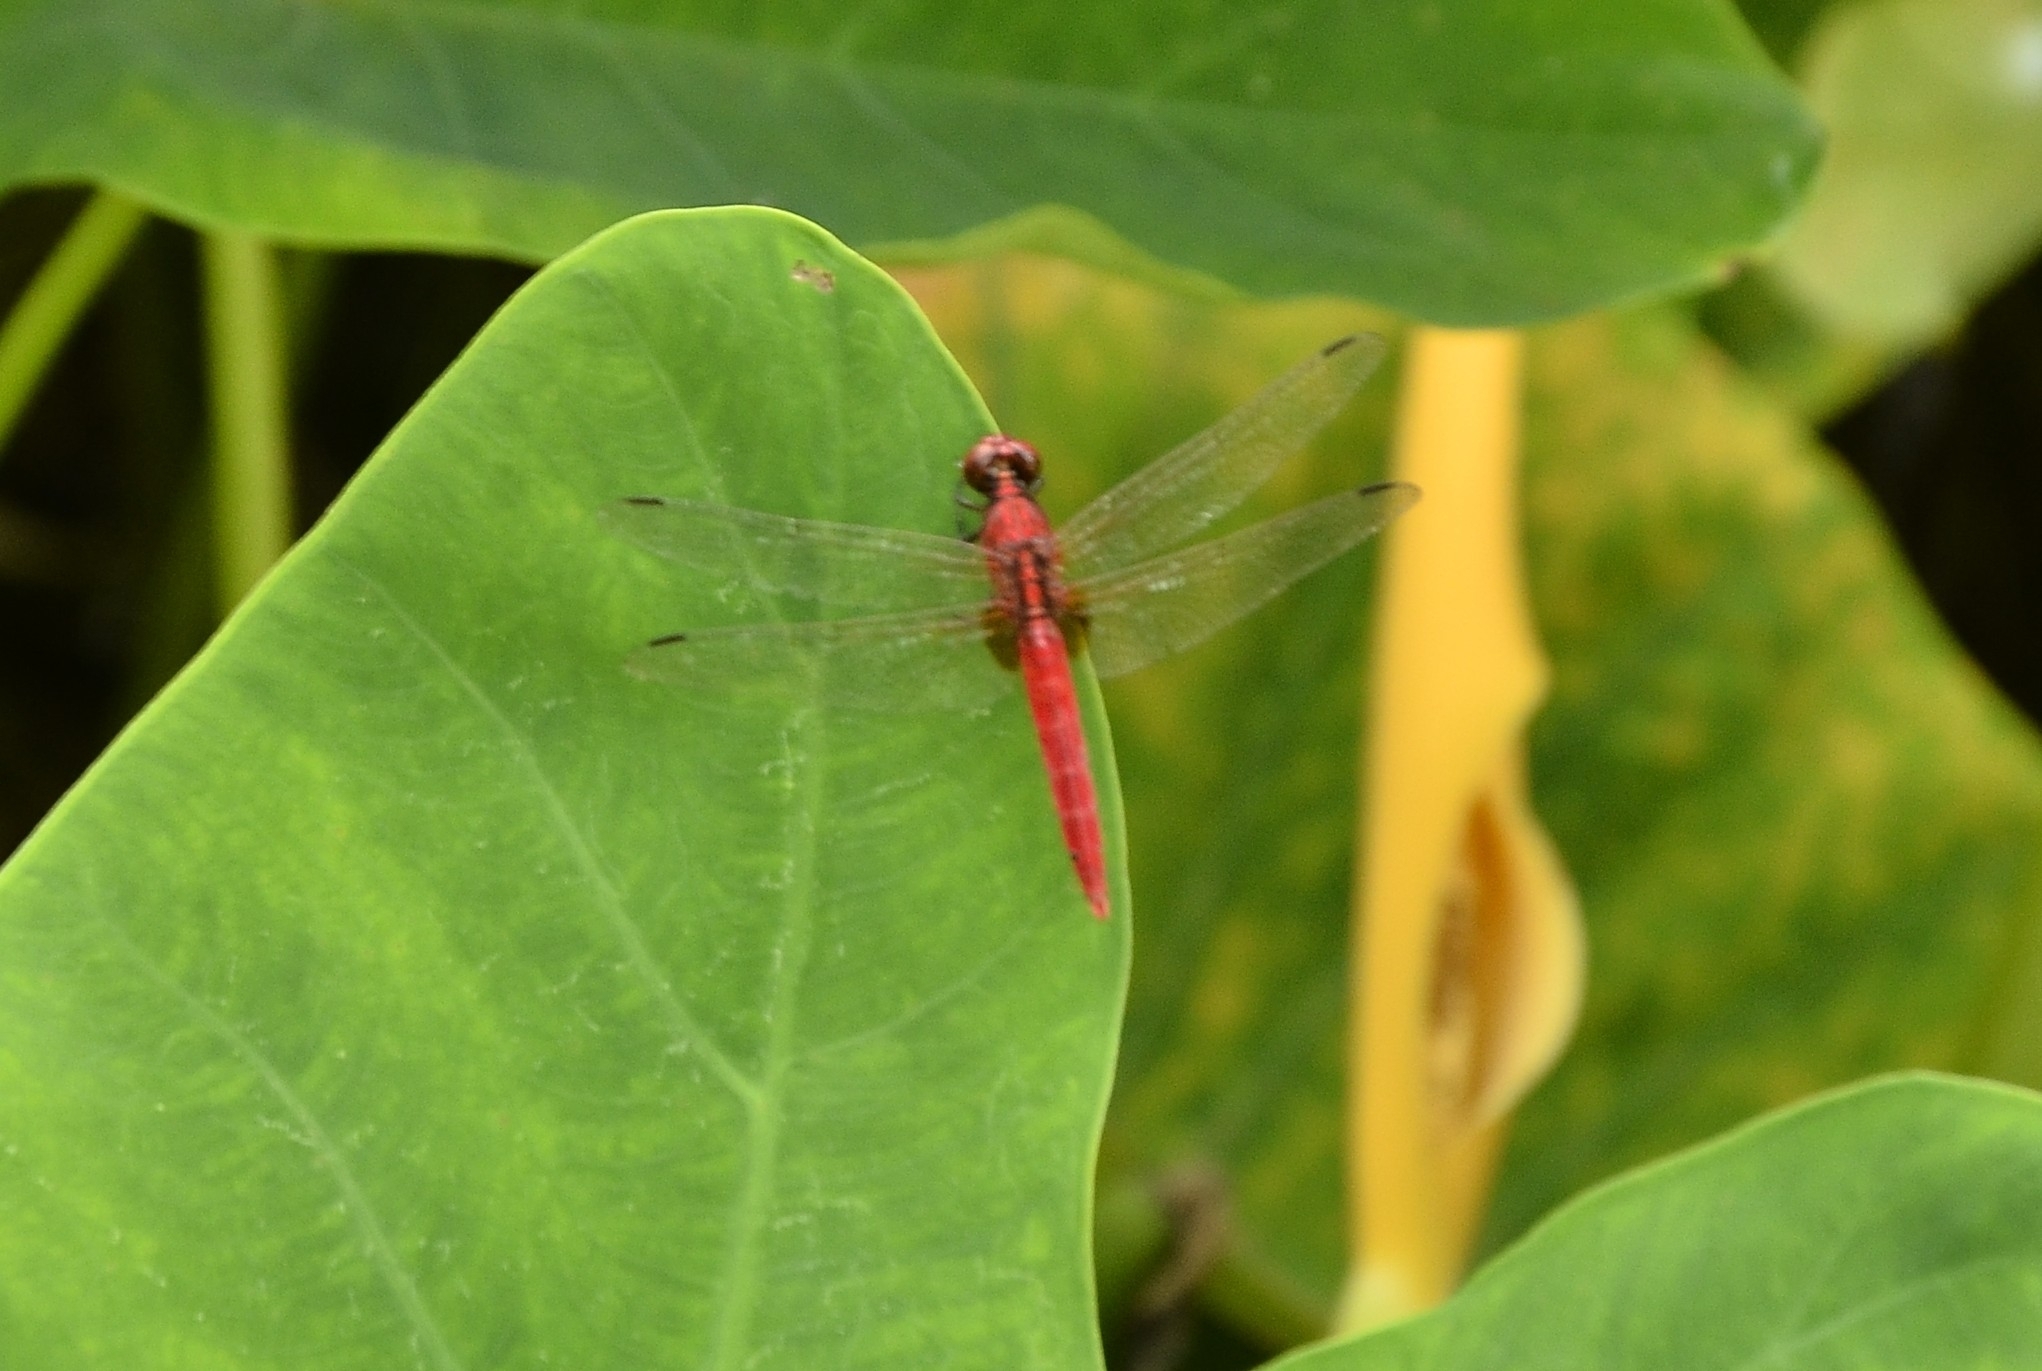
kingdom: Animalia
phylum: Arthropoda
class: Insecta
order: Odonata
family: Libellulidae
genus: Rhodothemis
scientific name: Rhodothemis rufa
